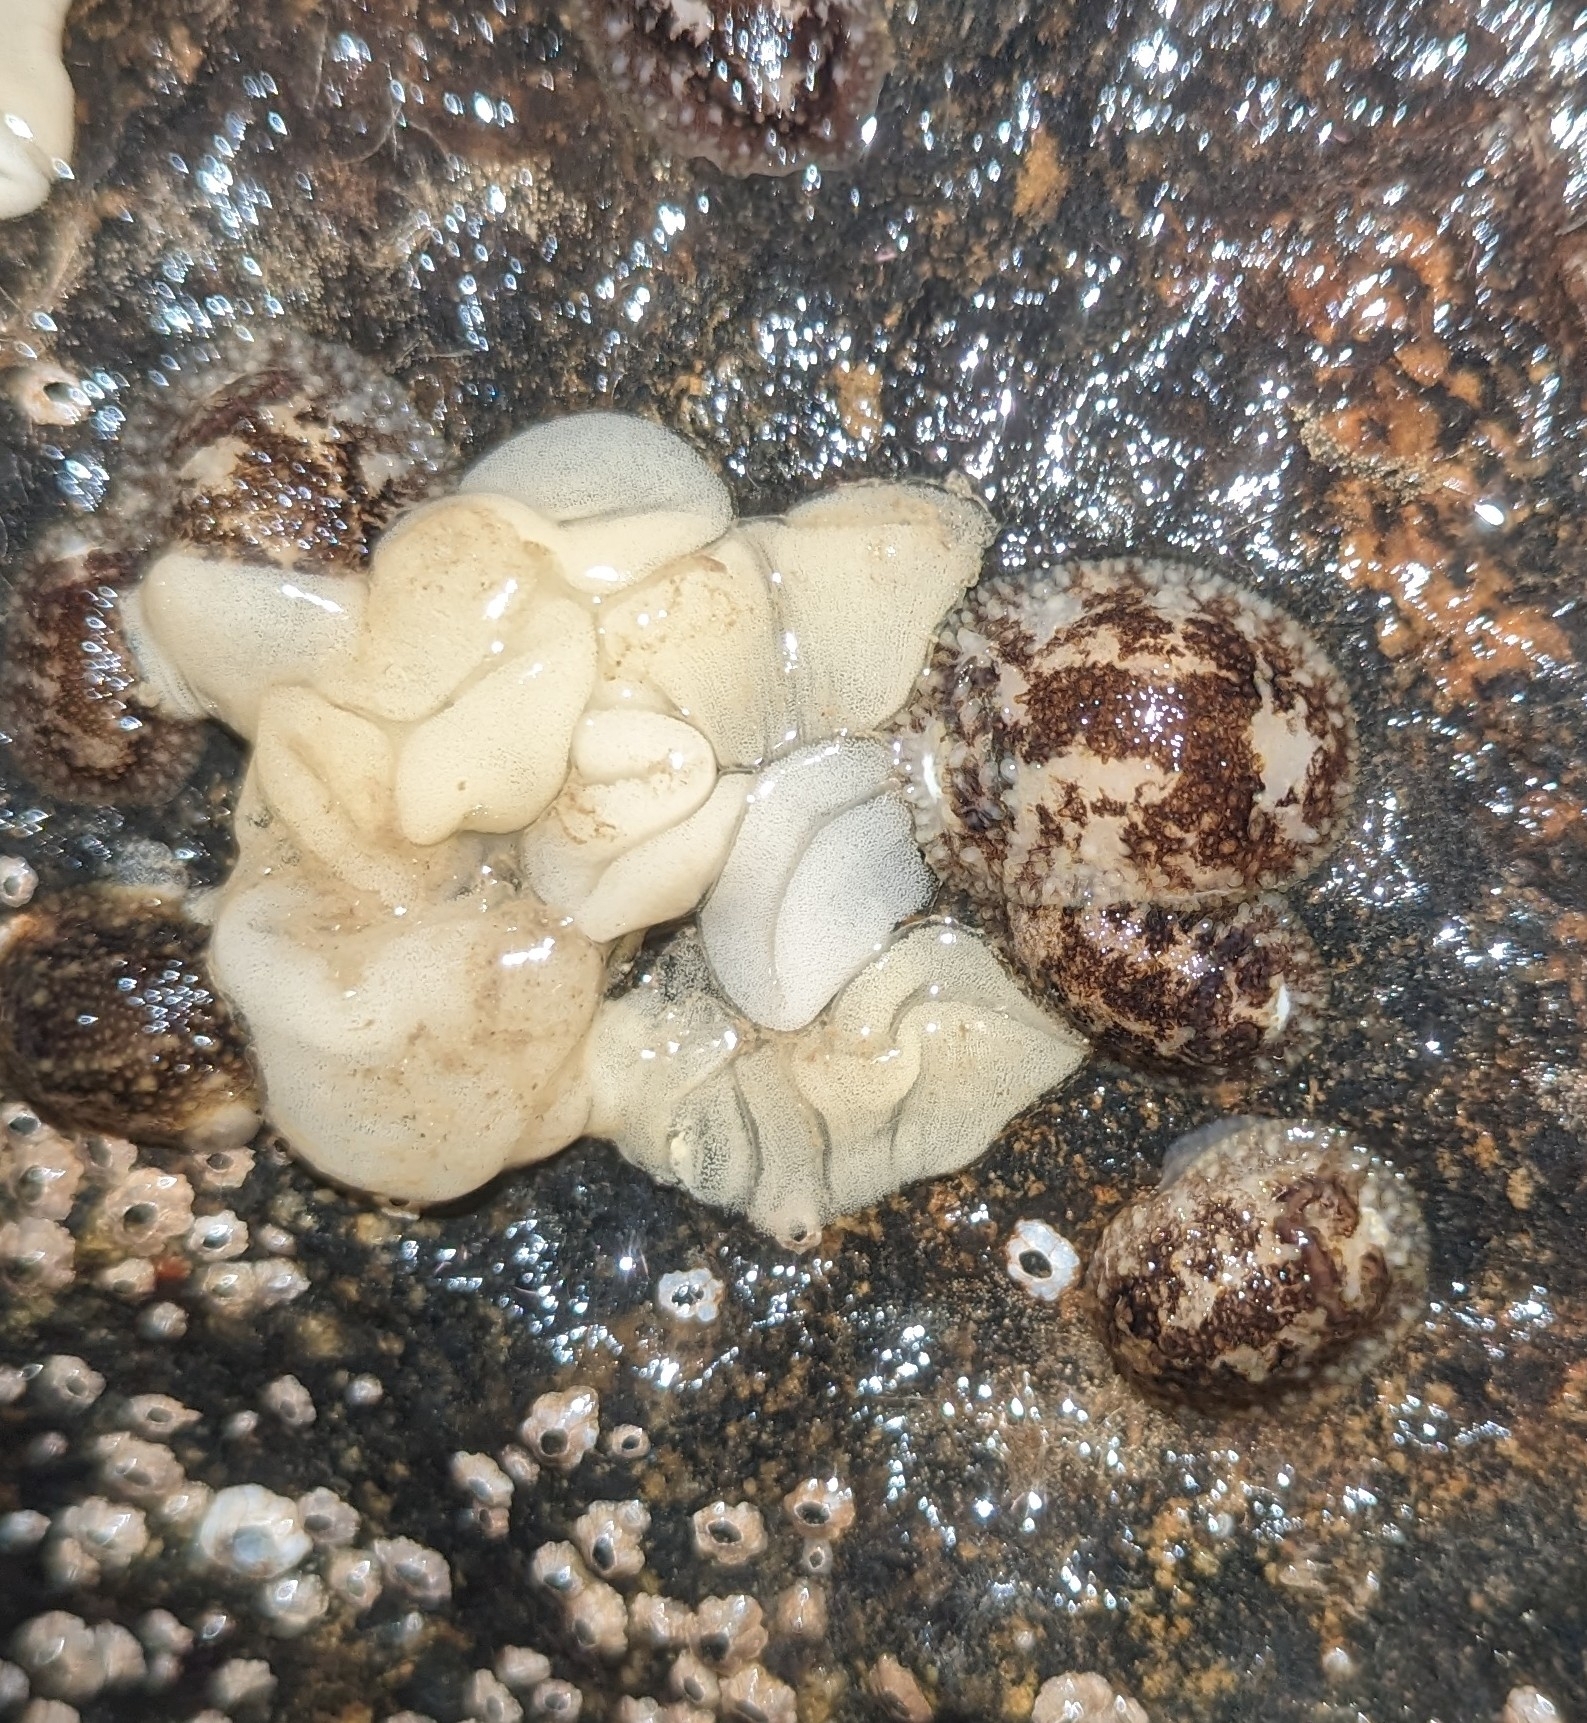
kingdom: Animalia
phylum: Mollusca
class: Gastropoda
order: Nudibranchia
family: Onchidorididae
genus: Onchidoris
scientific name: Onchidoris bilamellata
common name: Barnacle-eating onchidoris
